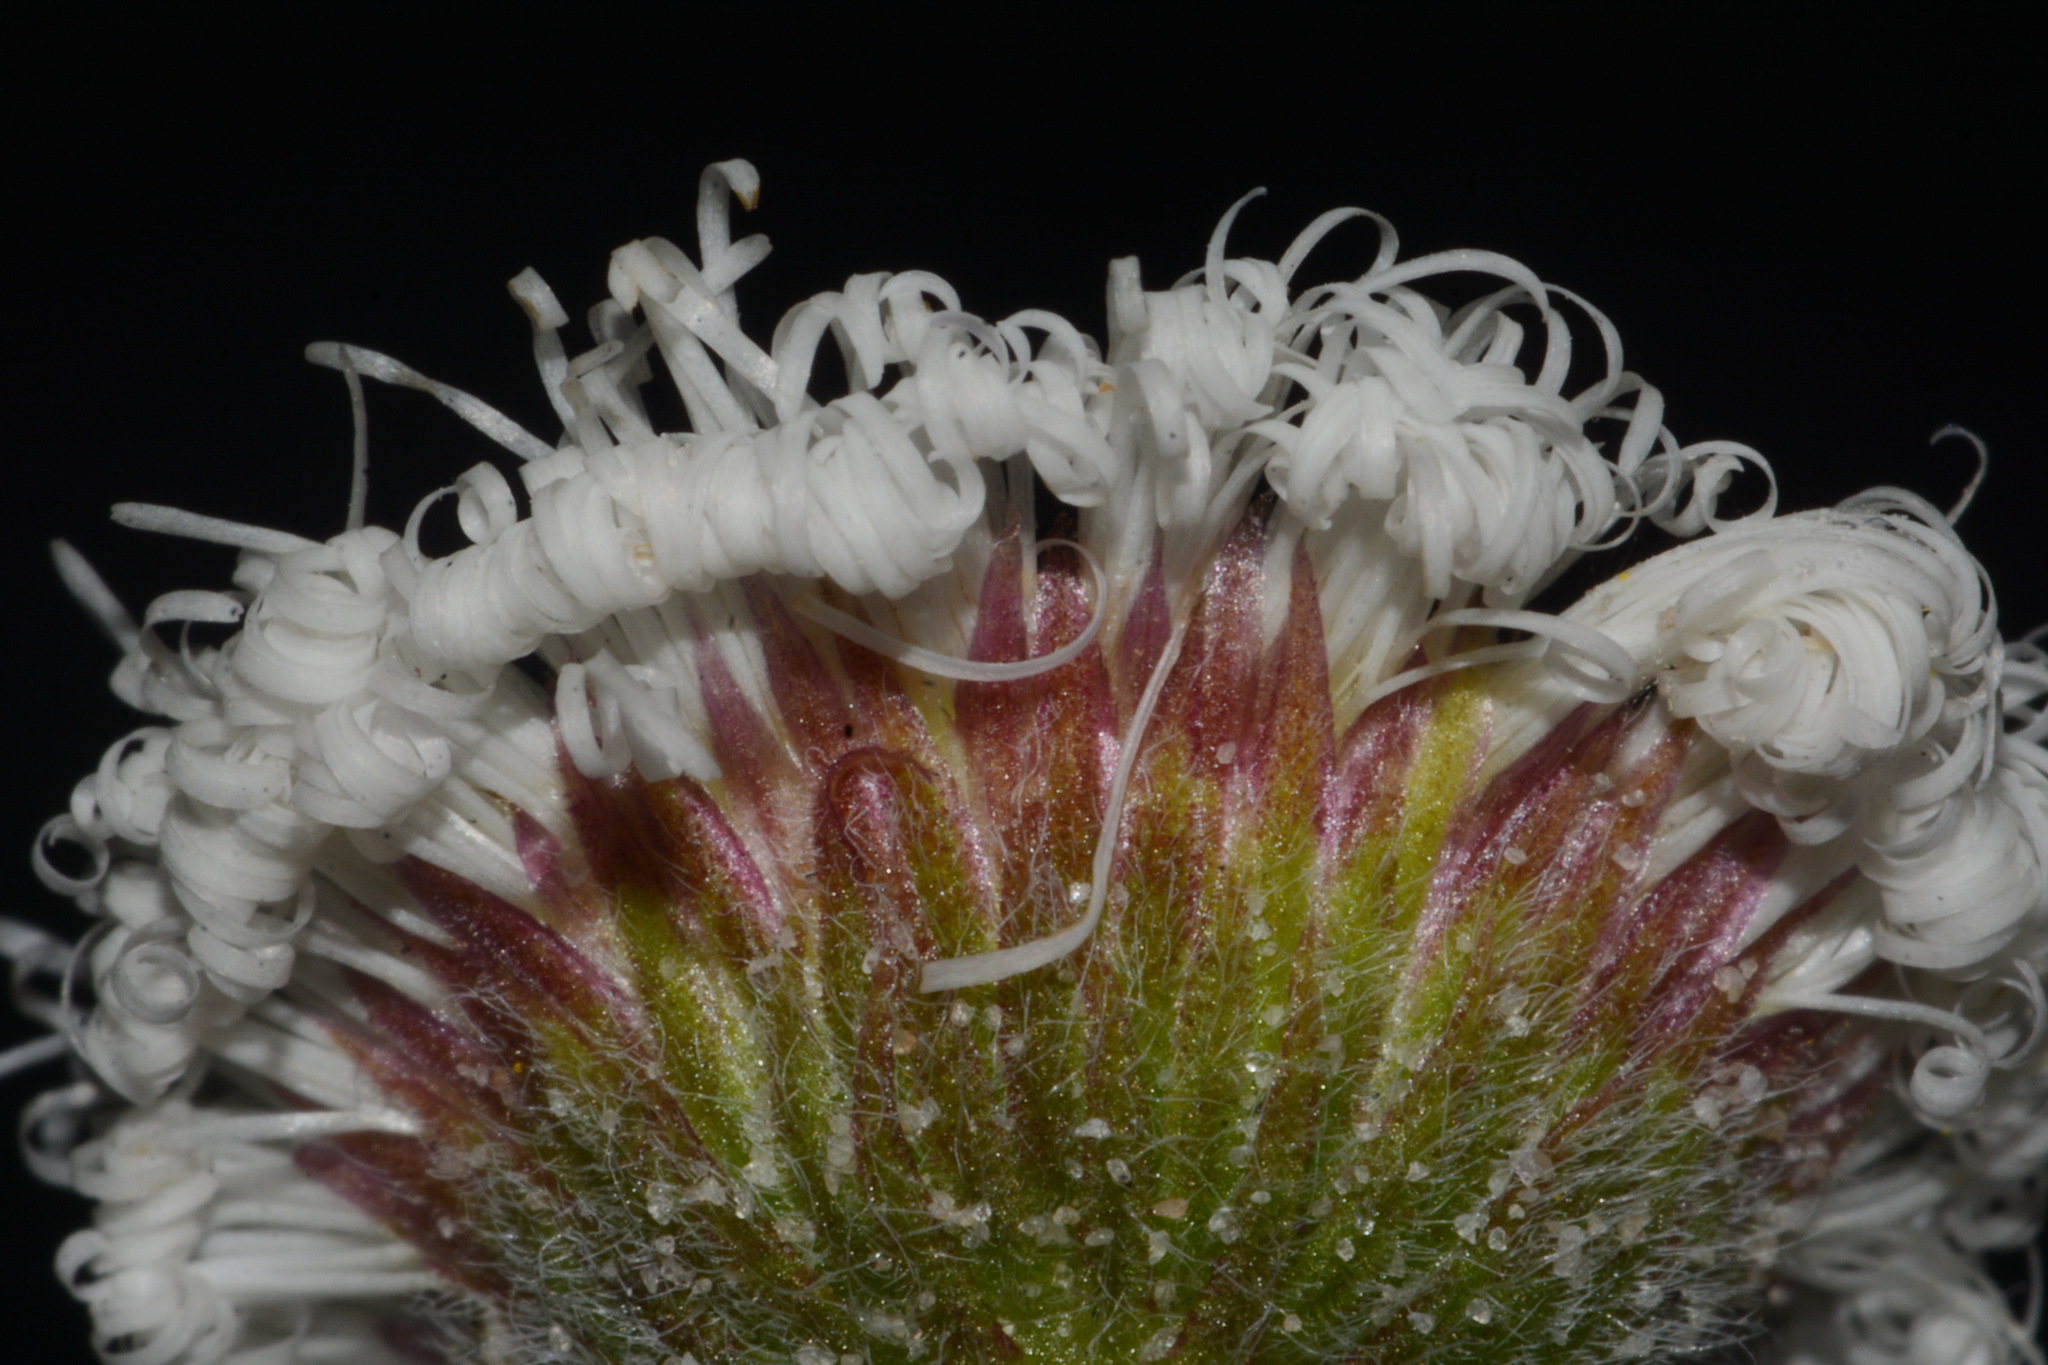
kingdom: Plantae
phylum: Tracheophyta
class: Magnoliopsida
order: Asterales
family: Asteraceae
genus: Erigeron
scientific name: Erigeron procumbens
